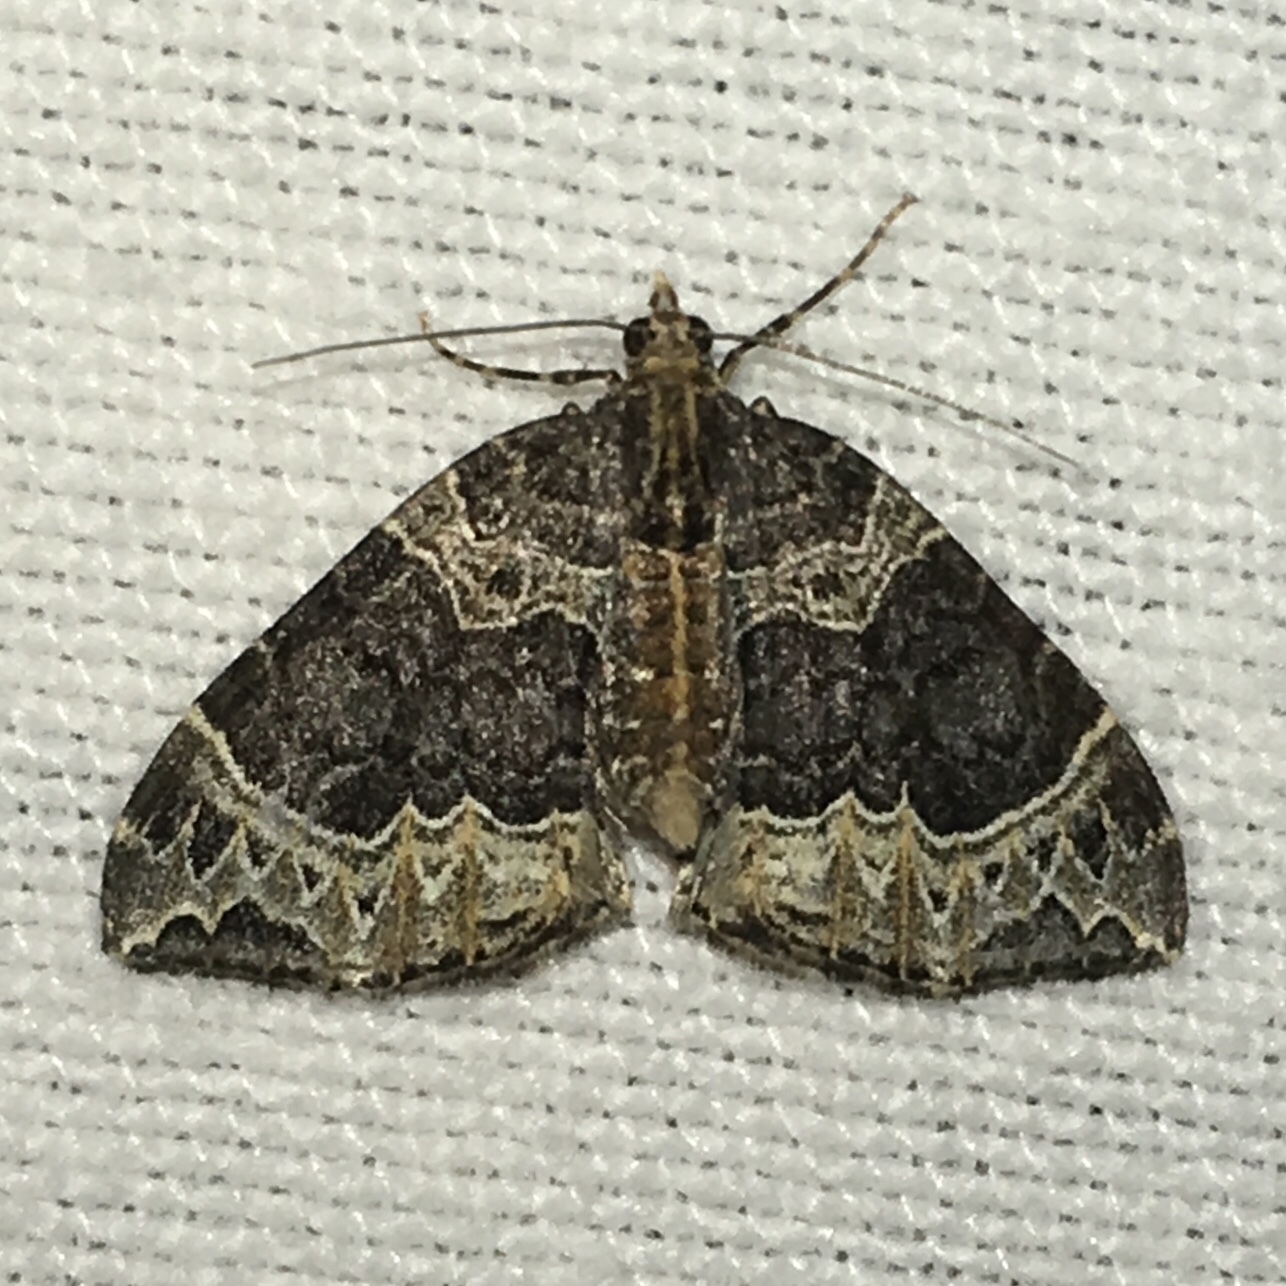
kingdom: Animalia
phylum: Arthropoda
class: Insecta
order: Lepidoptera
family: Geometridae
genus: Ecliptopera
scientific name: Ecliptopera silaceata
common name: Small phoenix
